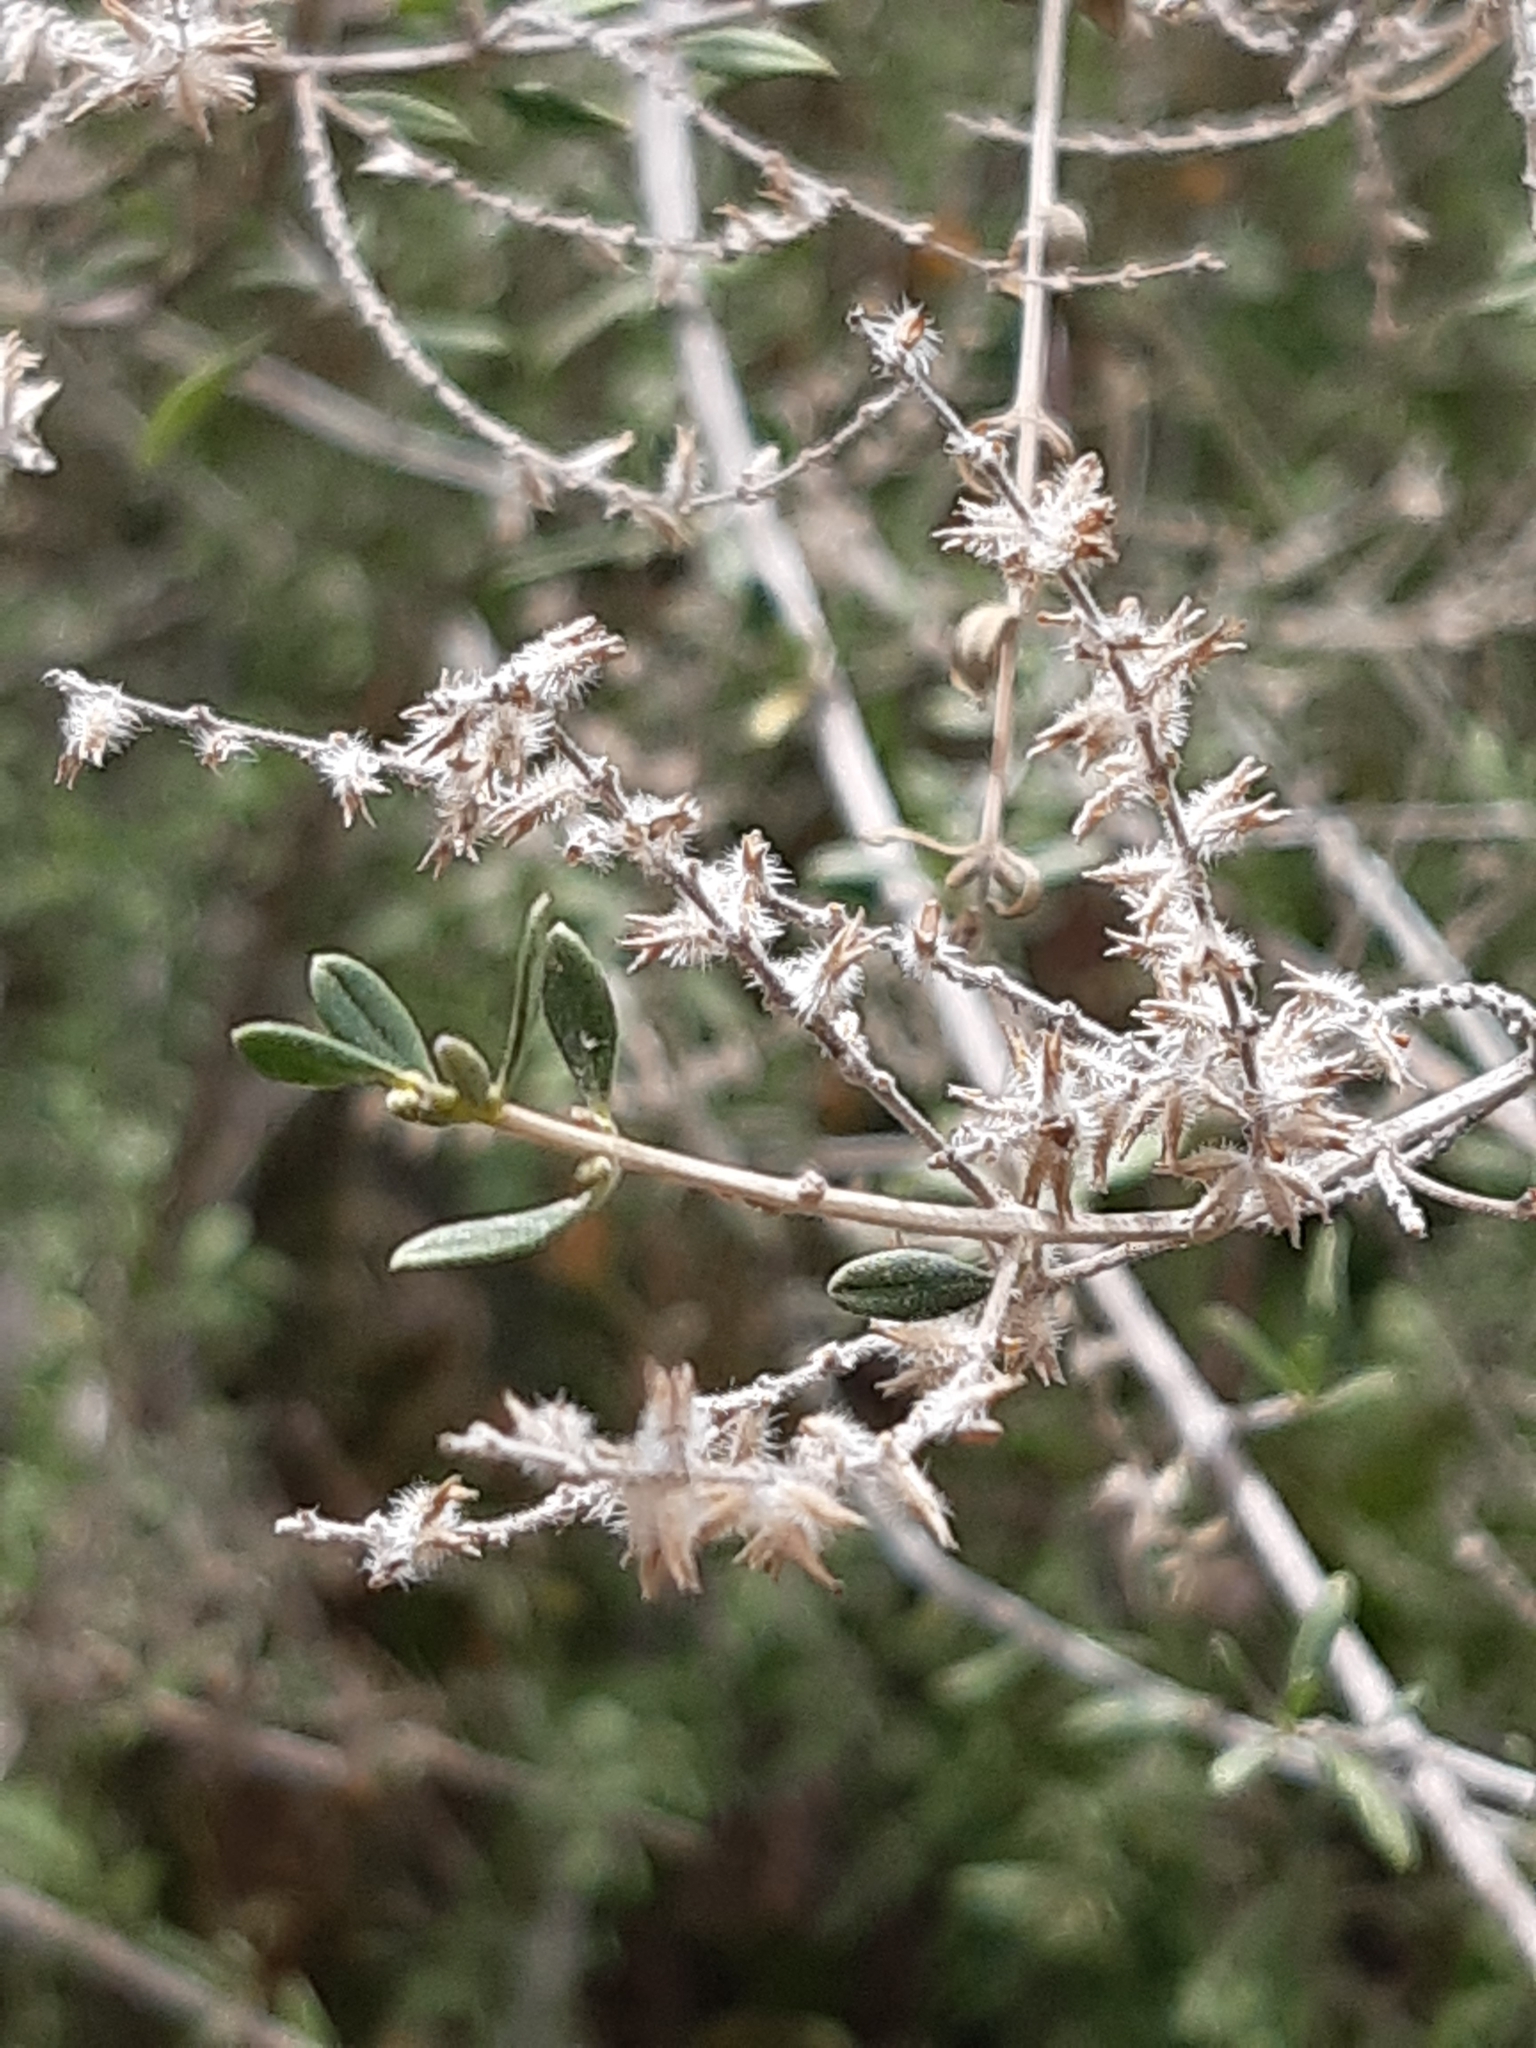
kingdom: Plantae
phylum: Tracheophyta
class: Magnoliopsida
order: Lamiales
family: Oleaceae
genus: Forestiera
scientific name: Forestiera phillyreoides
